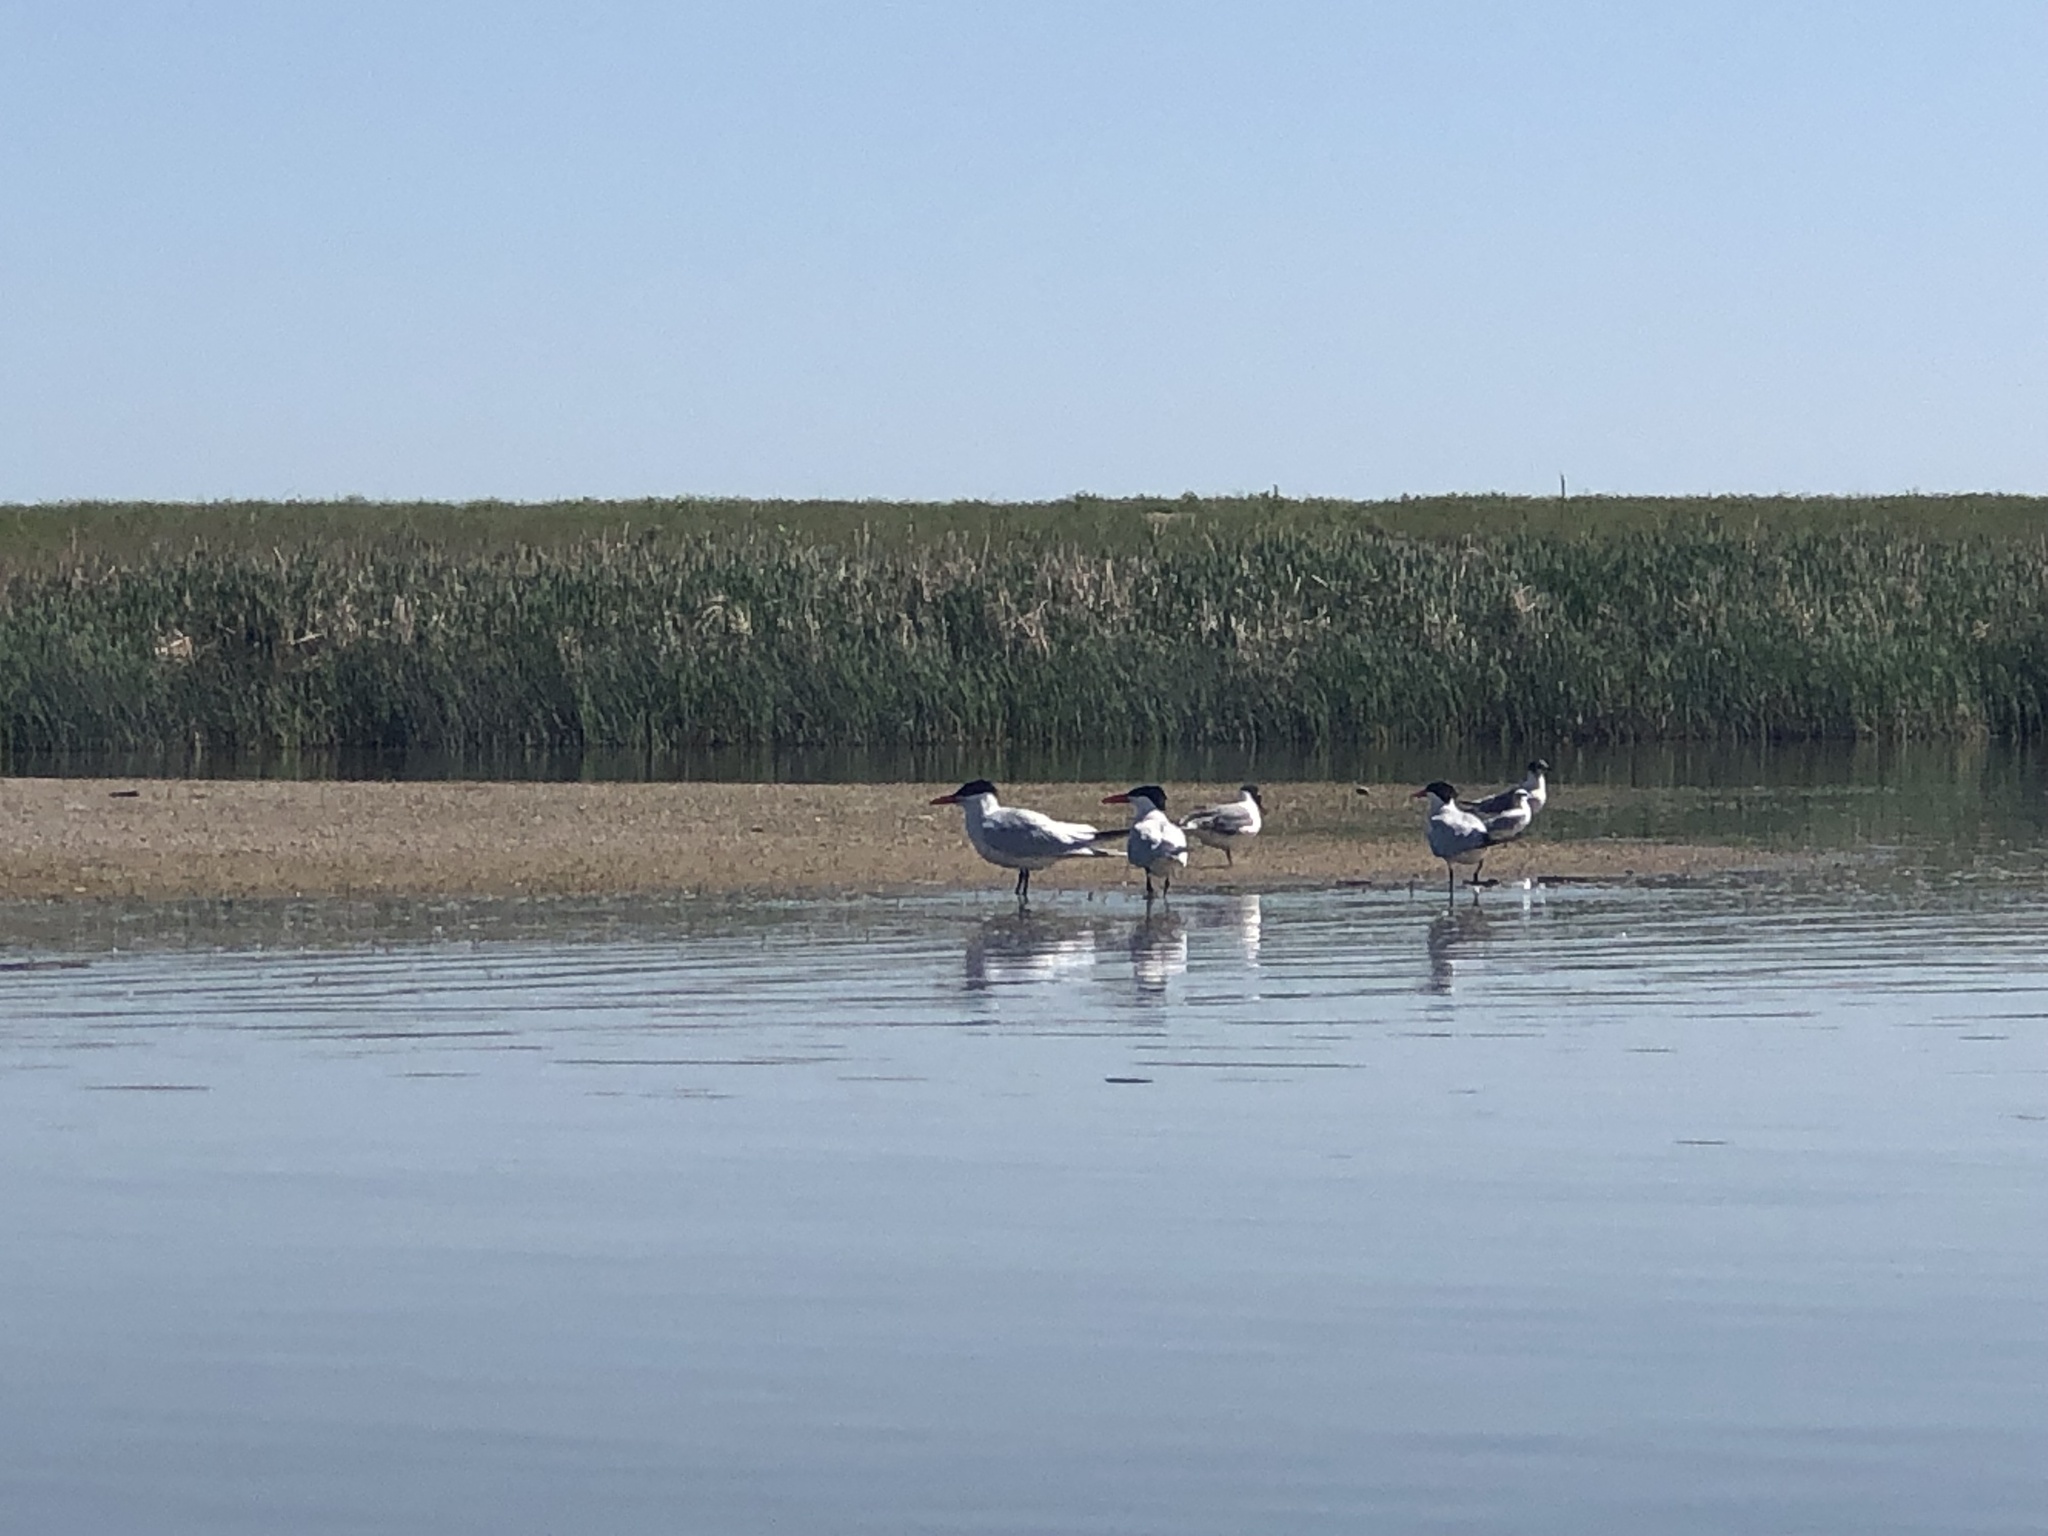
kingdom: Animalia
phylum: Chordata
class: Aves
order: Charadriiformes
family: Laridae
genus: Hydroprogne
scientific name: Hydroprogne caspia
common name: Caspian tern
